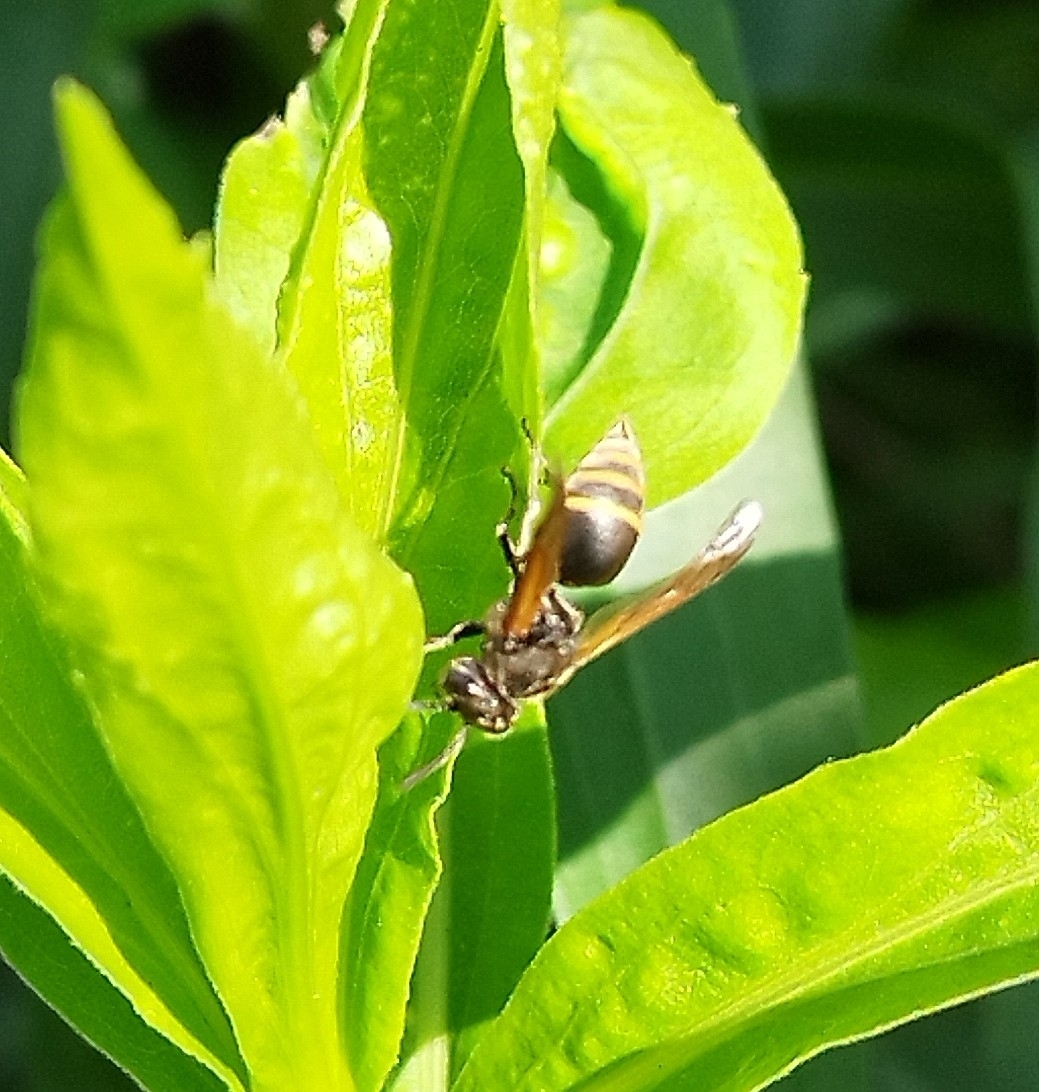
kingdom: Animalia
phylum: Arthropoda
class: Insecta
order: Hymenoptera
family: Vespidae
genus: Brachygastra
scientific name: Brachygastra lecheguana
